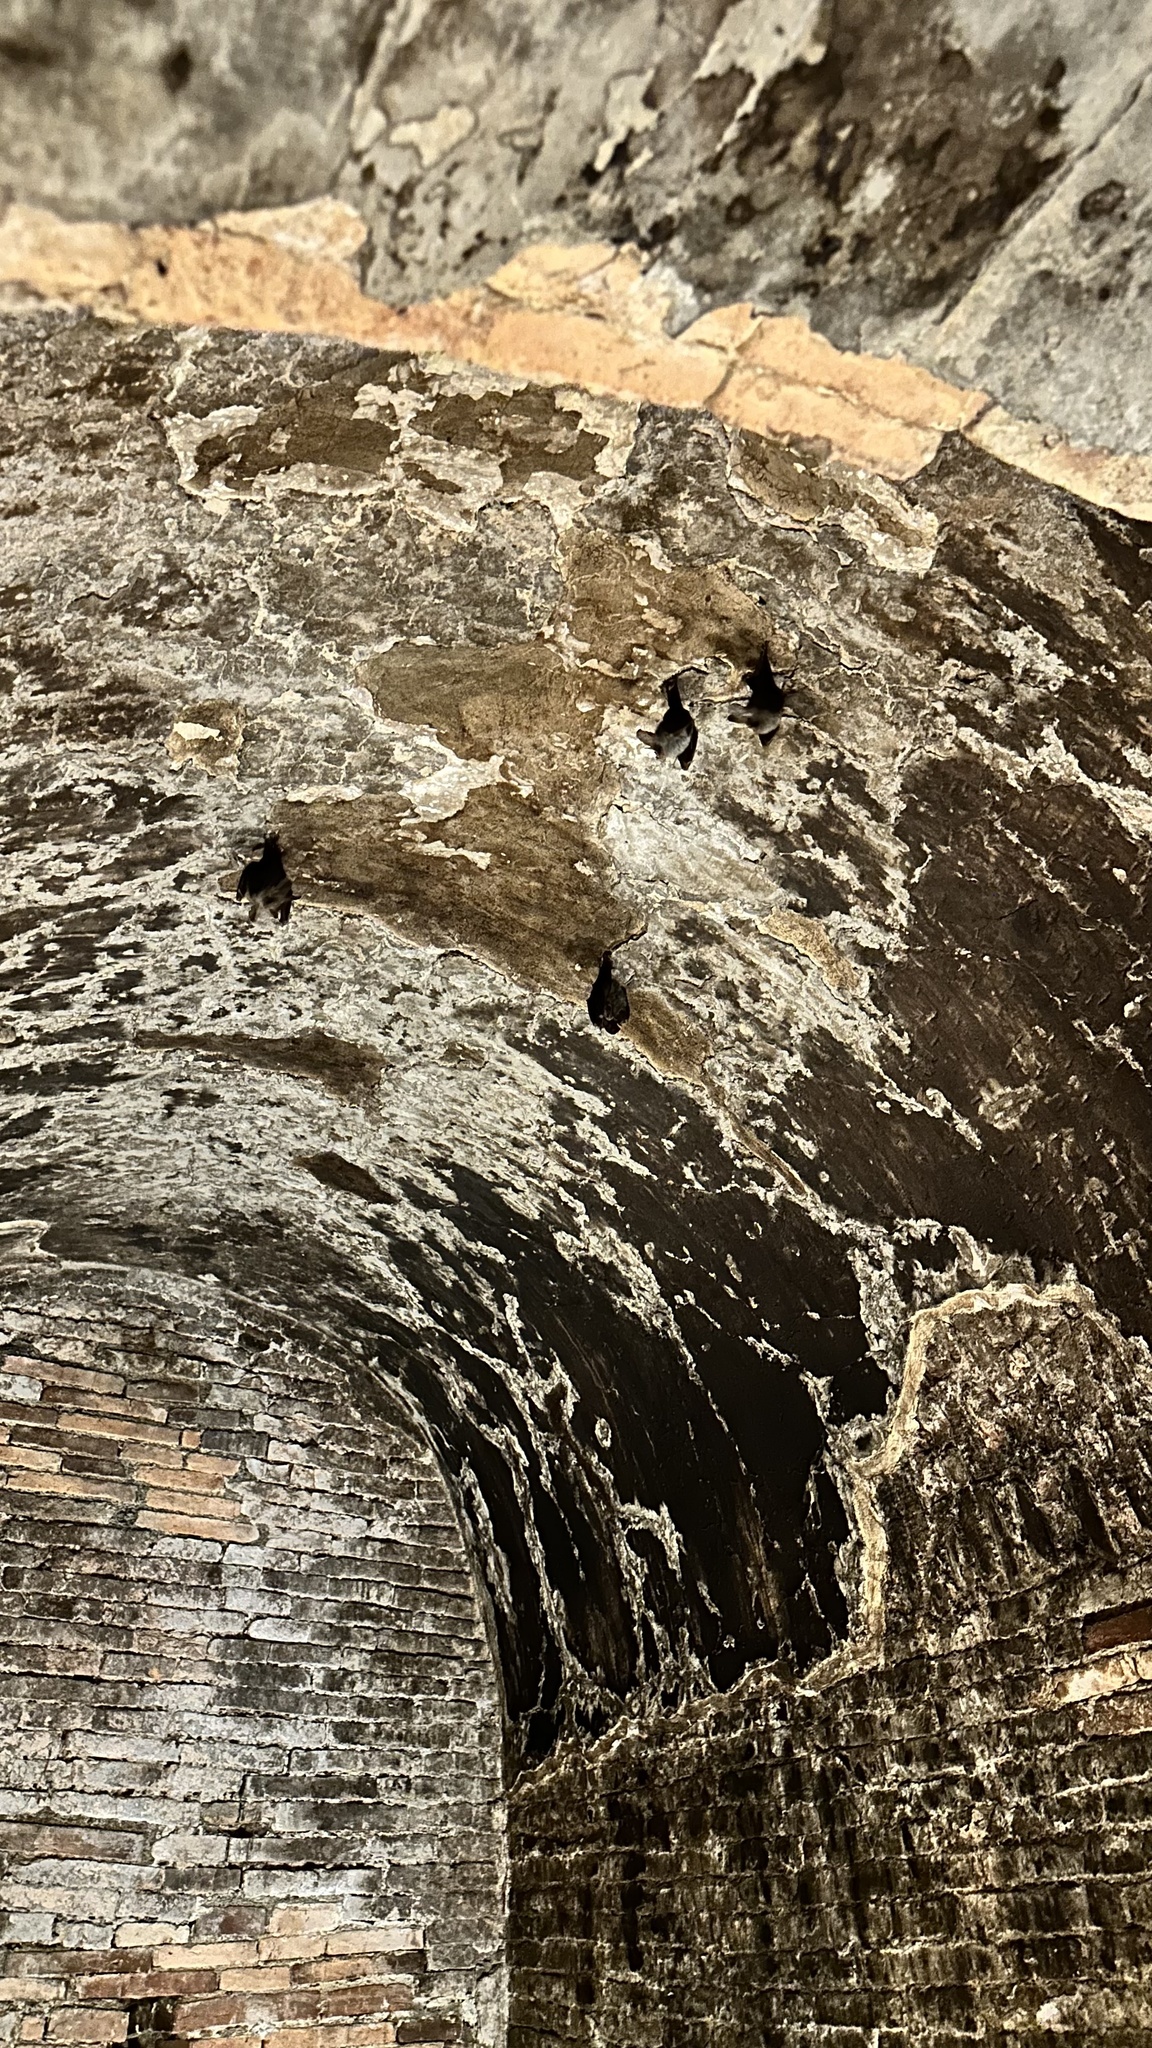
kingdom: Animalia
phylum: Chordata
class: Mammalia
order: Chiroptera
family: Megadermatidae
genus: Megaderma
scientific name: Megaderma spasma
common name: Lesser false vampire bat
